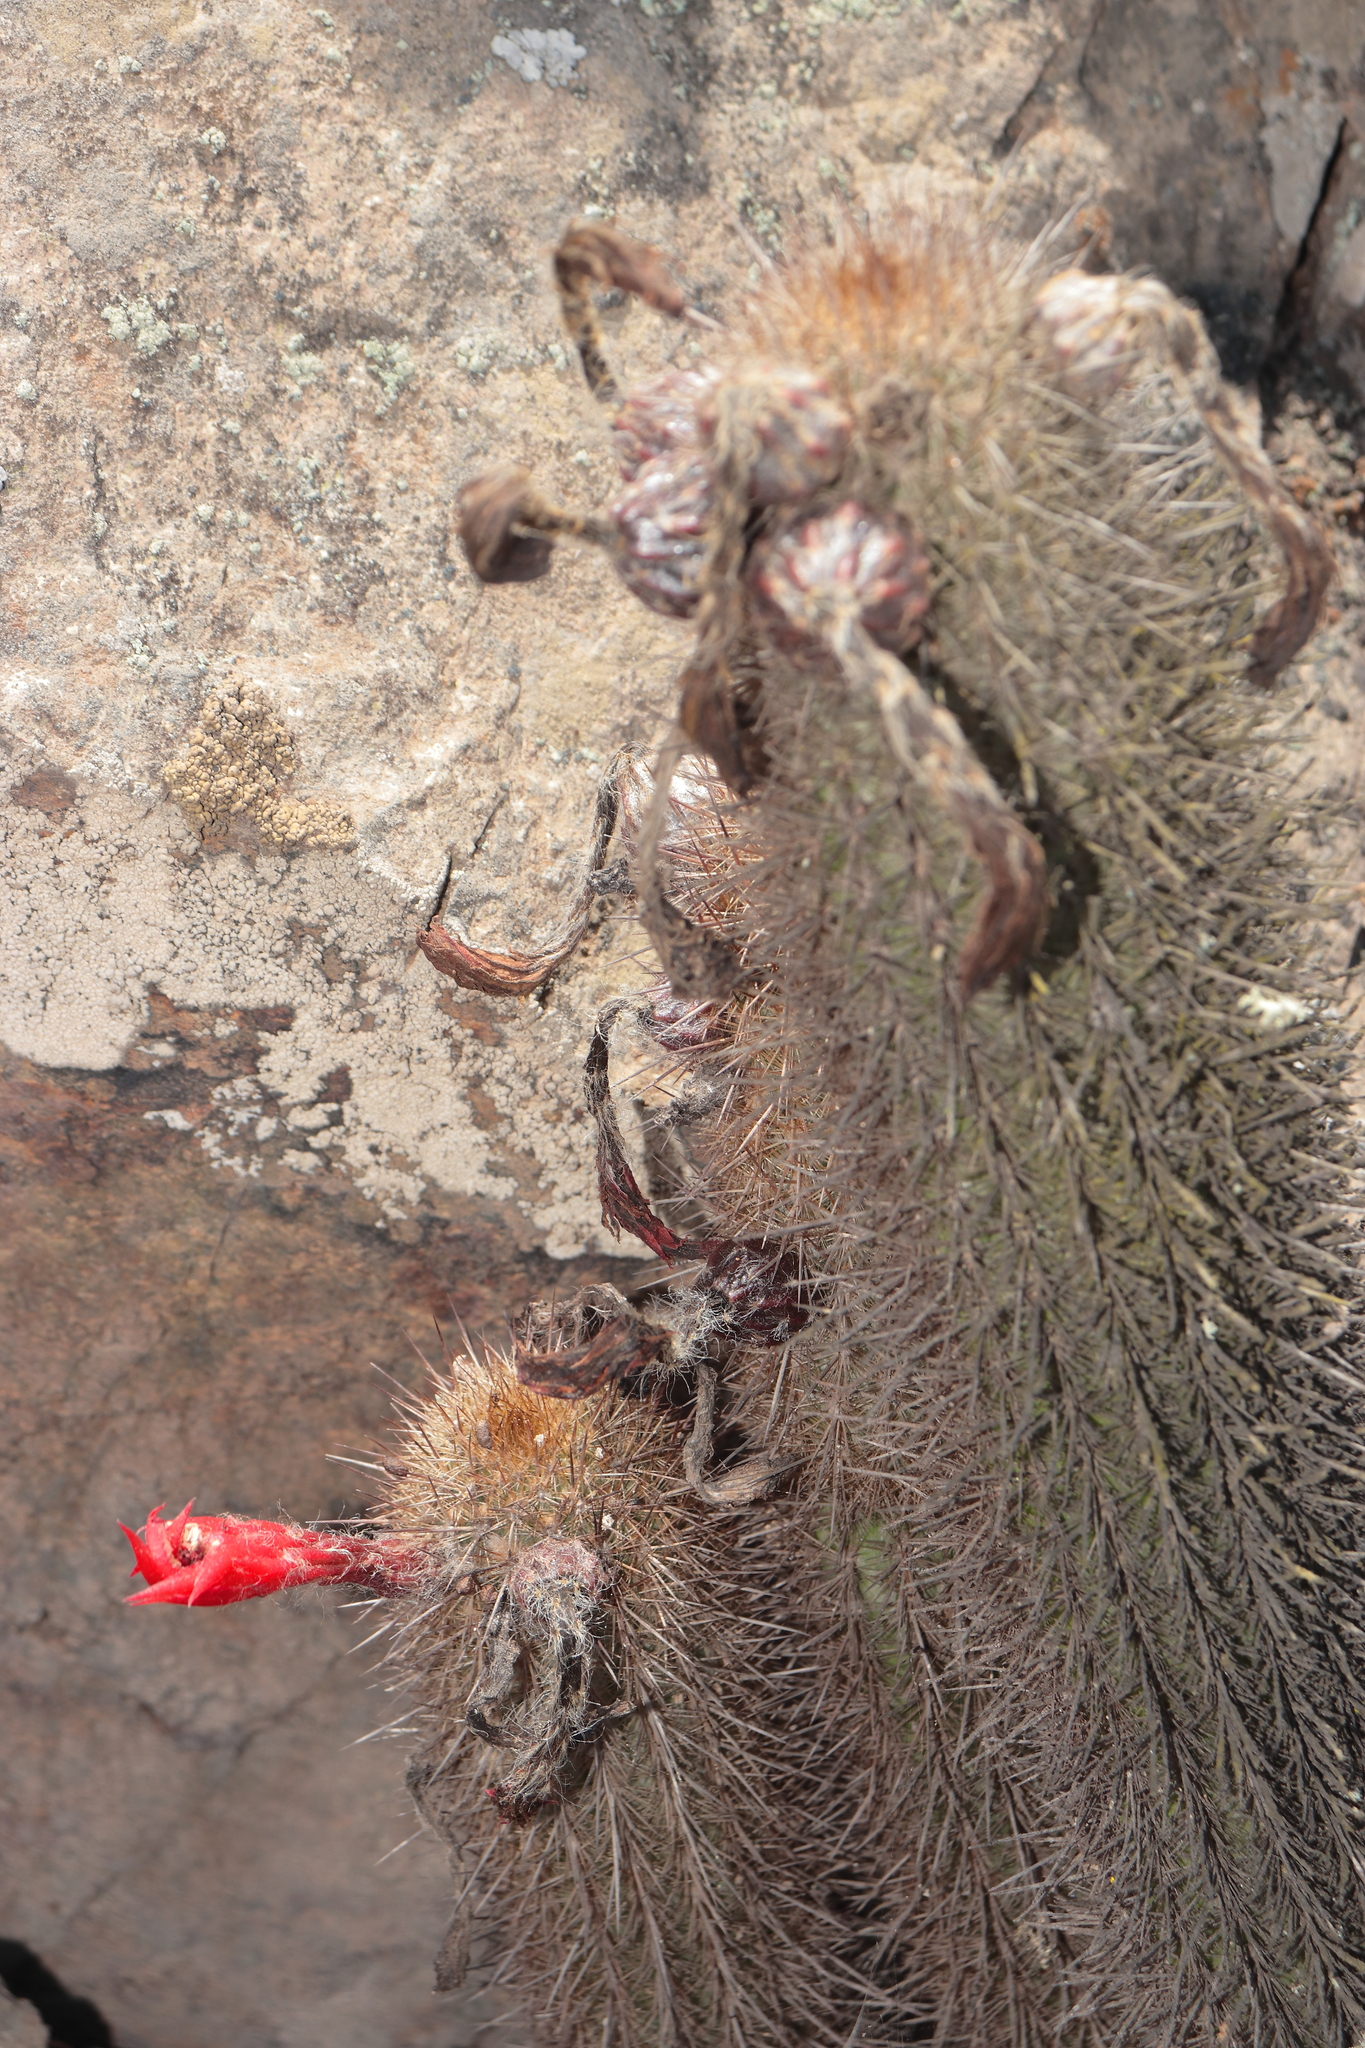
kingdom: Plantae
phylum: Tracheophyta
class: Magnoliopsida
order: Caryophyllales
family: Cactaceae
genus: Borzicactus
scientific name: Borzicactus acanthurus
